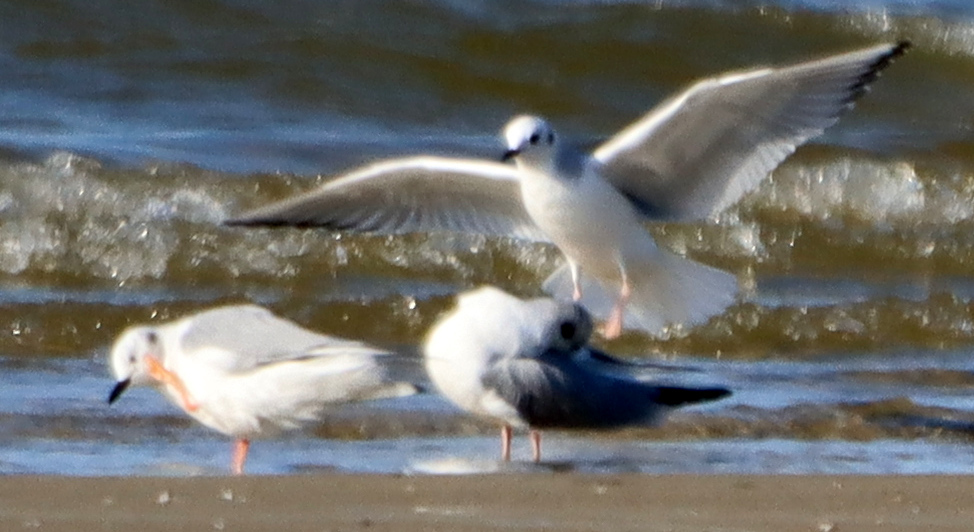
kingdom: Animalia
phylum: Chordata
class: Aves
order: Charadriiformes
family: Laridae
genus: Chroicocephalus
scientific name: Chroicocephalus philadelphia
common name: Bonaparte's gull
